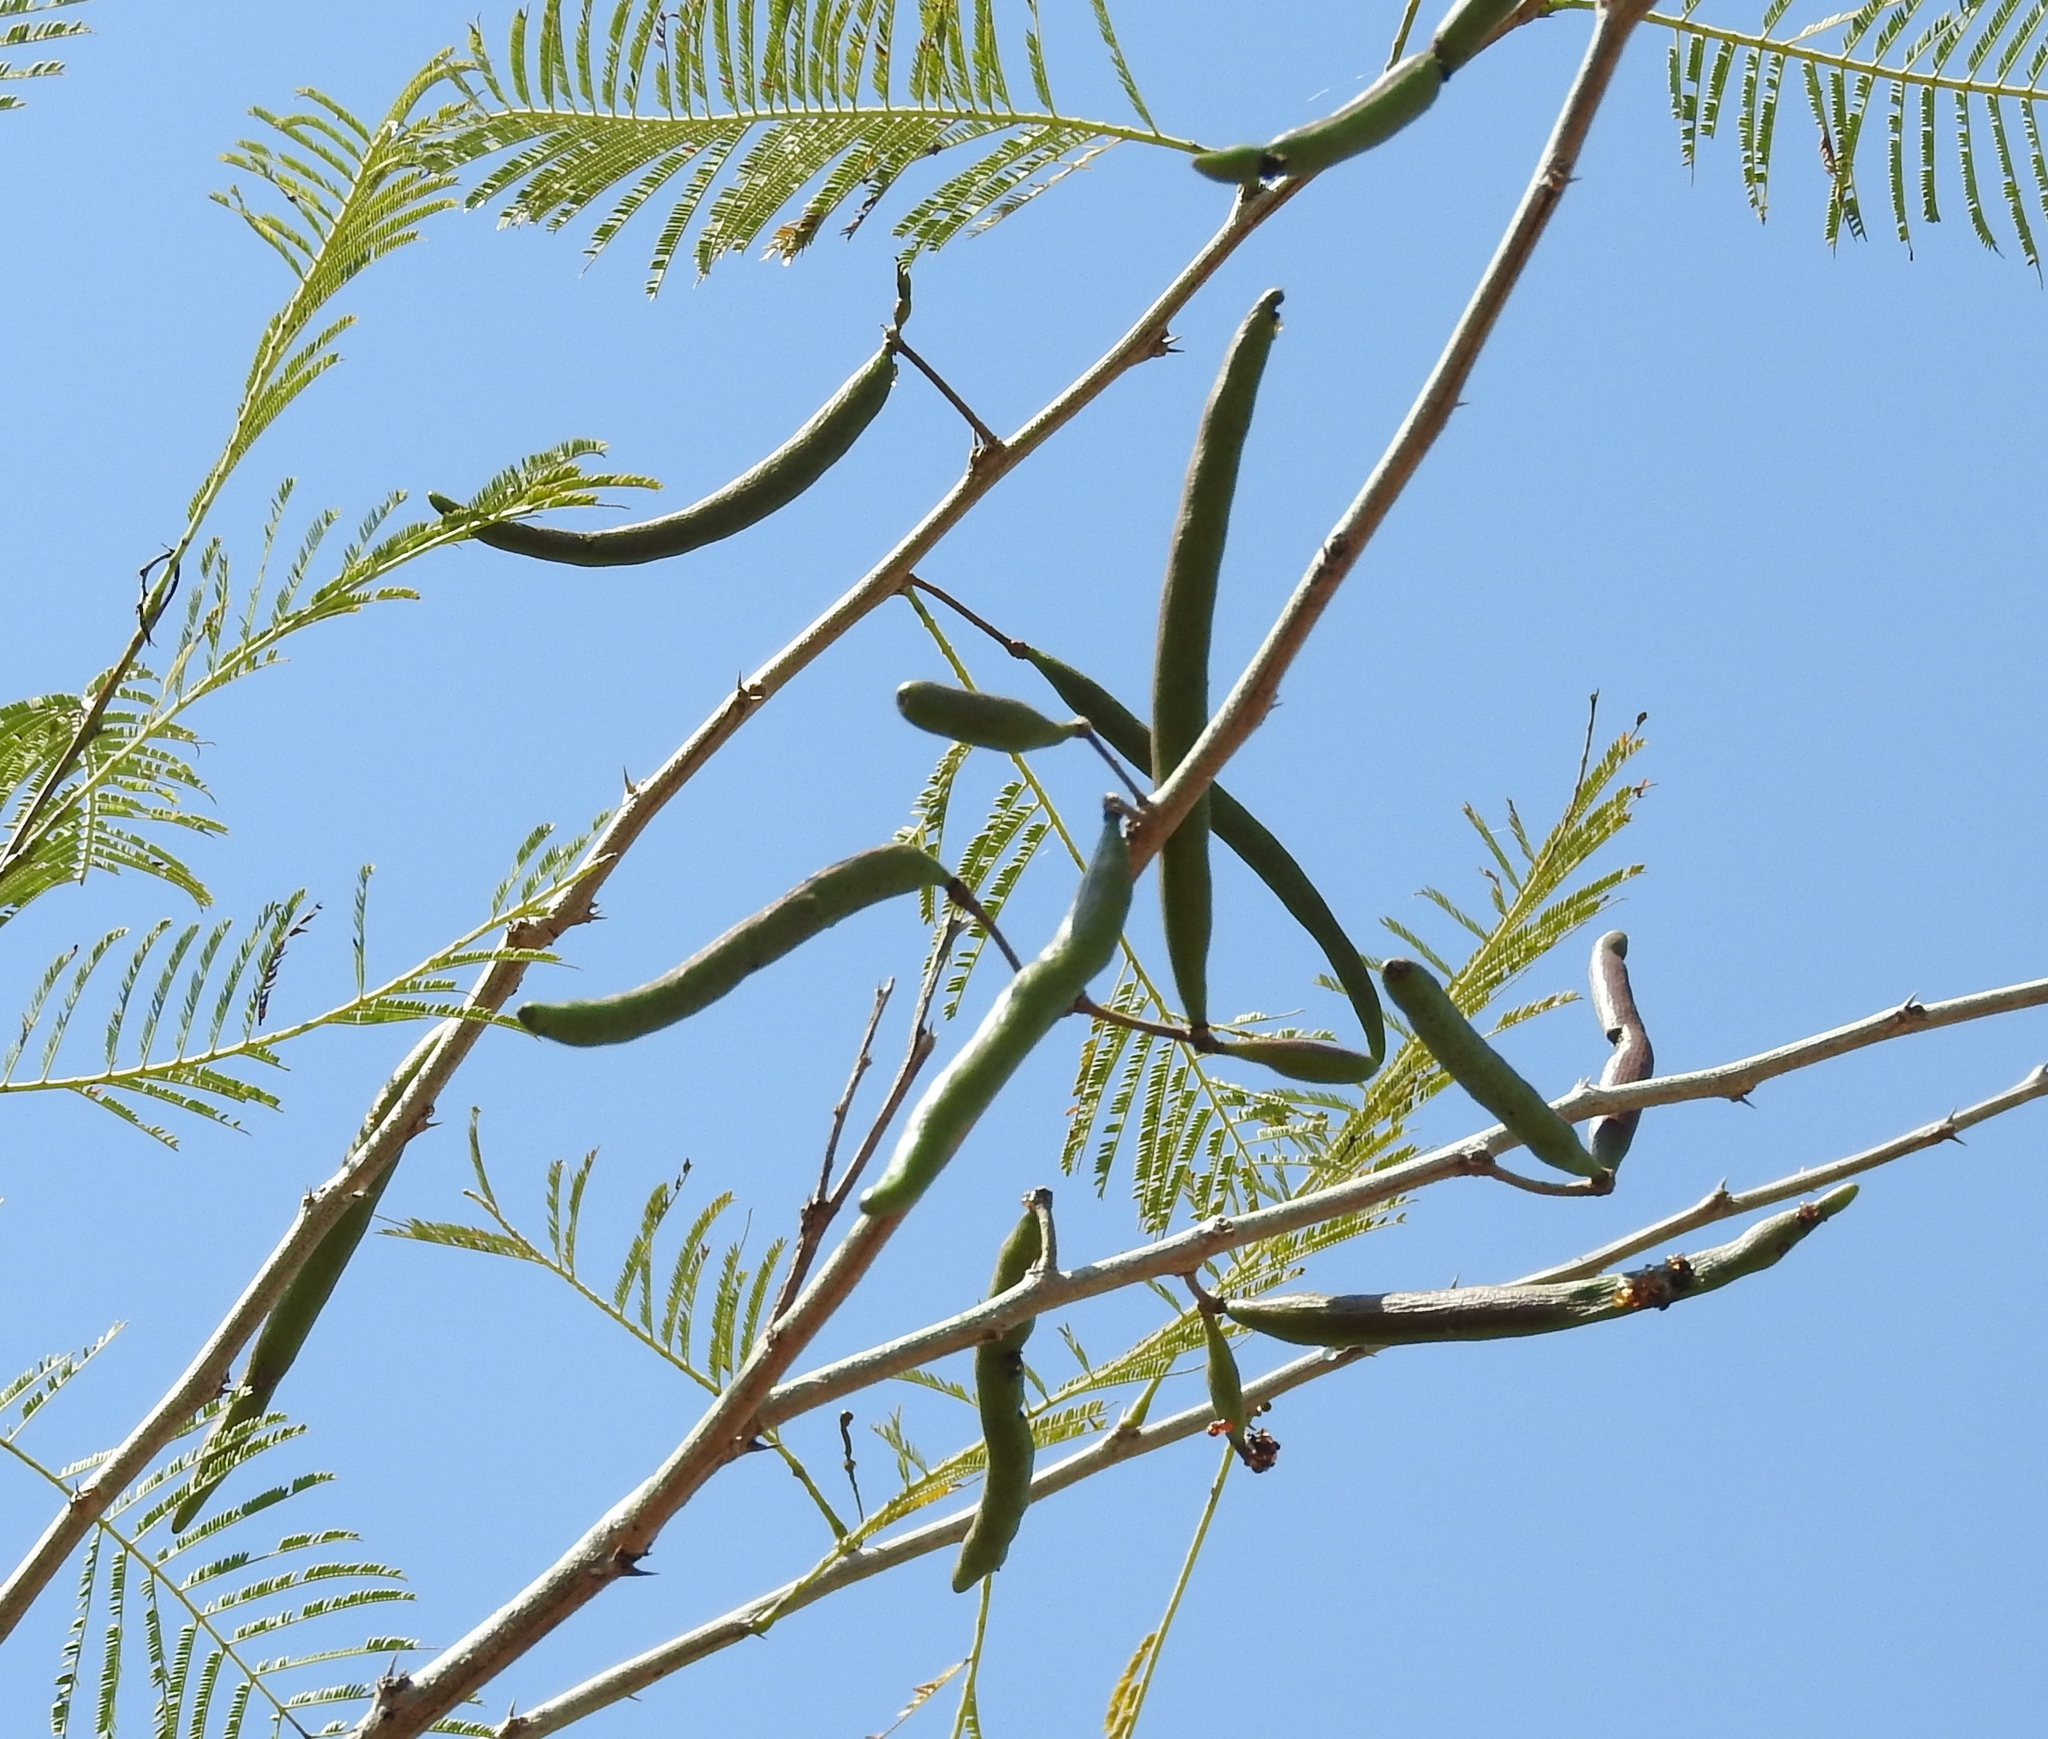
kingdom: Plantae
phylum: Tracheophyta
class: Magnoliopsida
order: Fabales
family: Fabaceae
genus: Vachellia
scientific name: Vachellia farnesiana
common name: Sweet acacia
